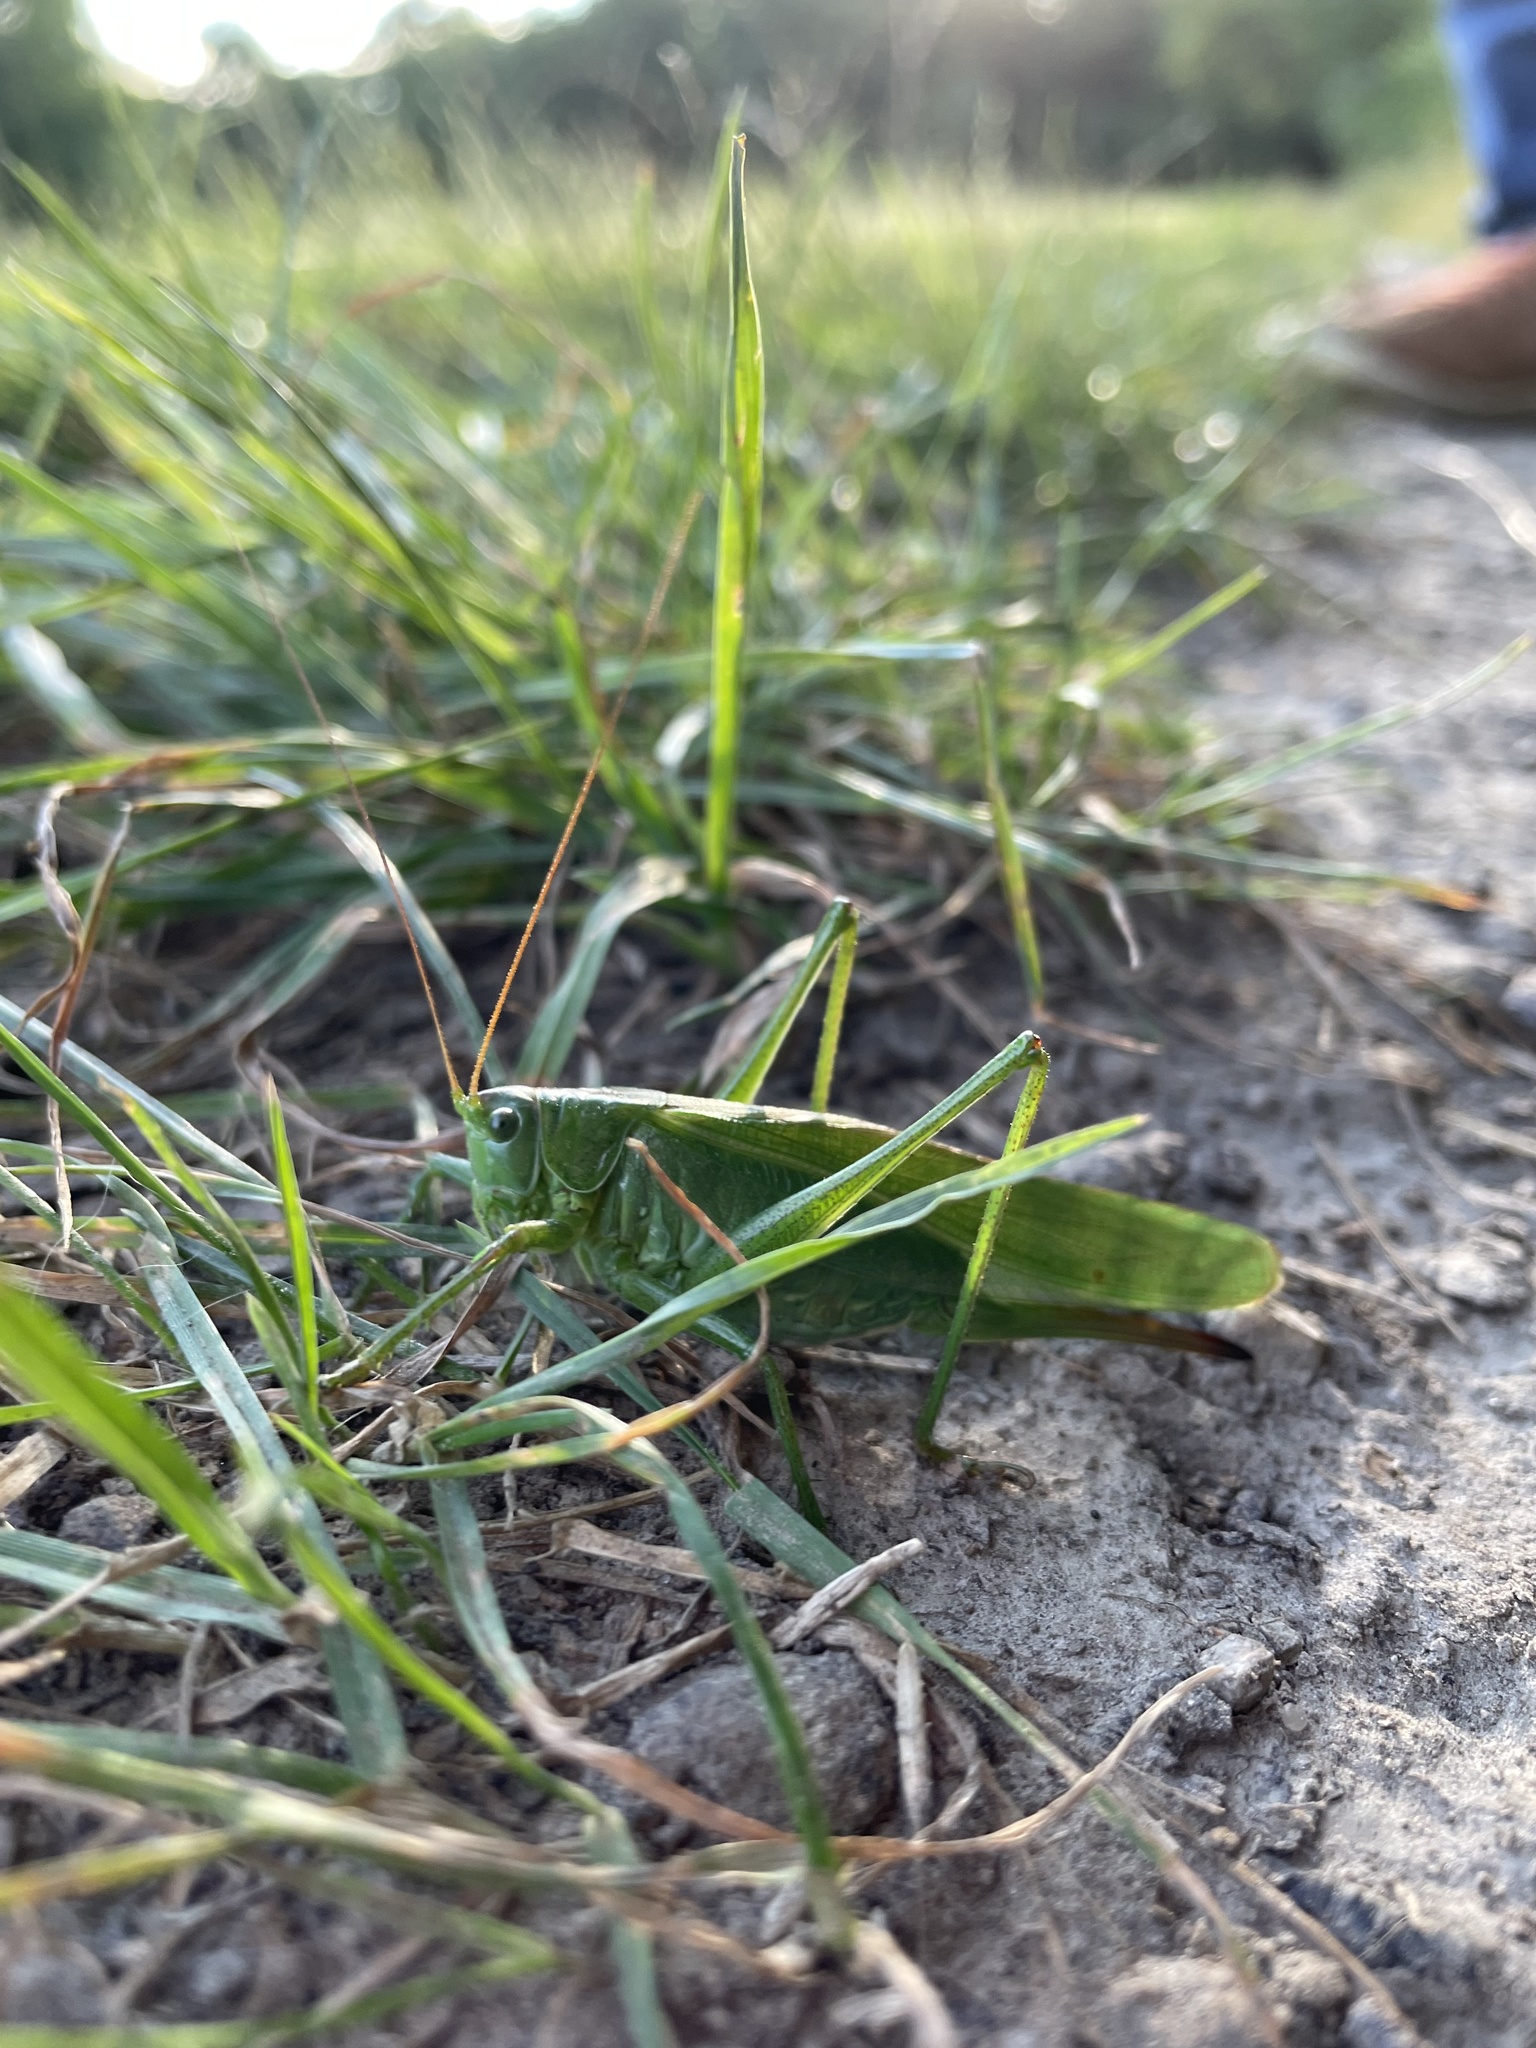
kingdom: Animalia
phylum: Arthropoda
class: Insecta
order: Orthoptera
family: Tettigoniidae
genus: Tettigonia
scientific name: Tettigonia viridissima
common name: Great green bush-cricket
